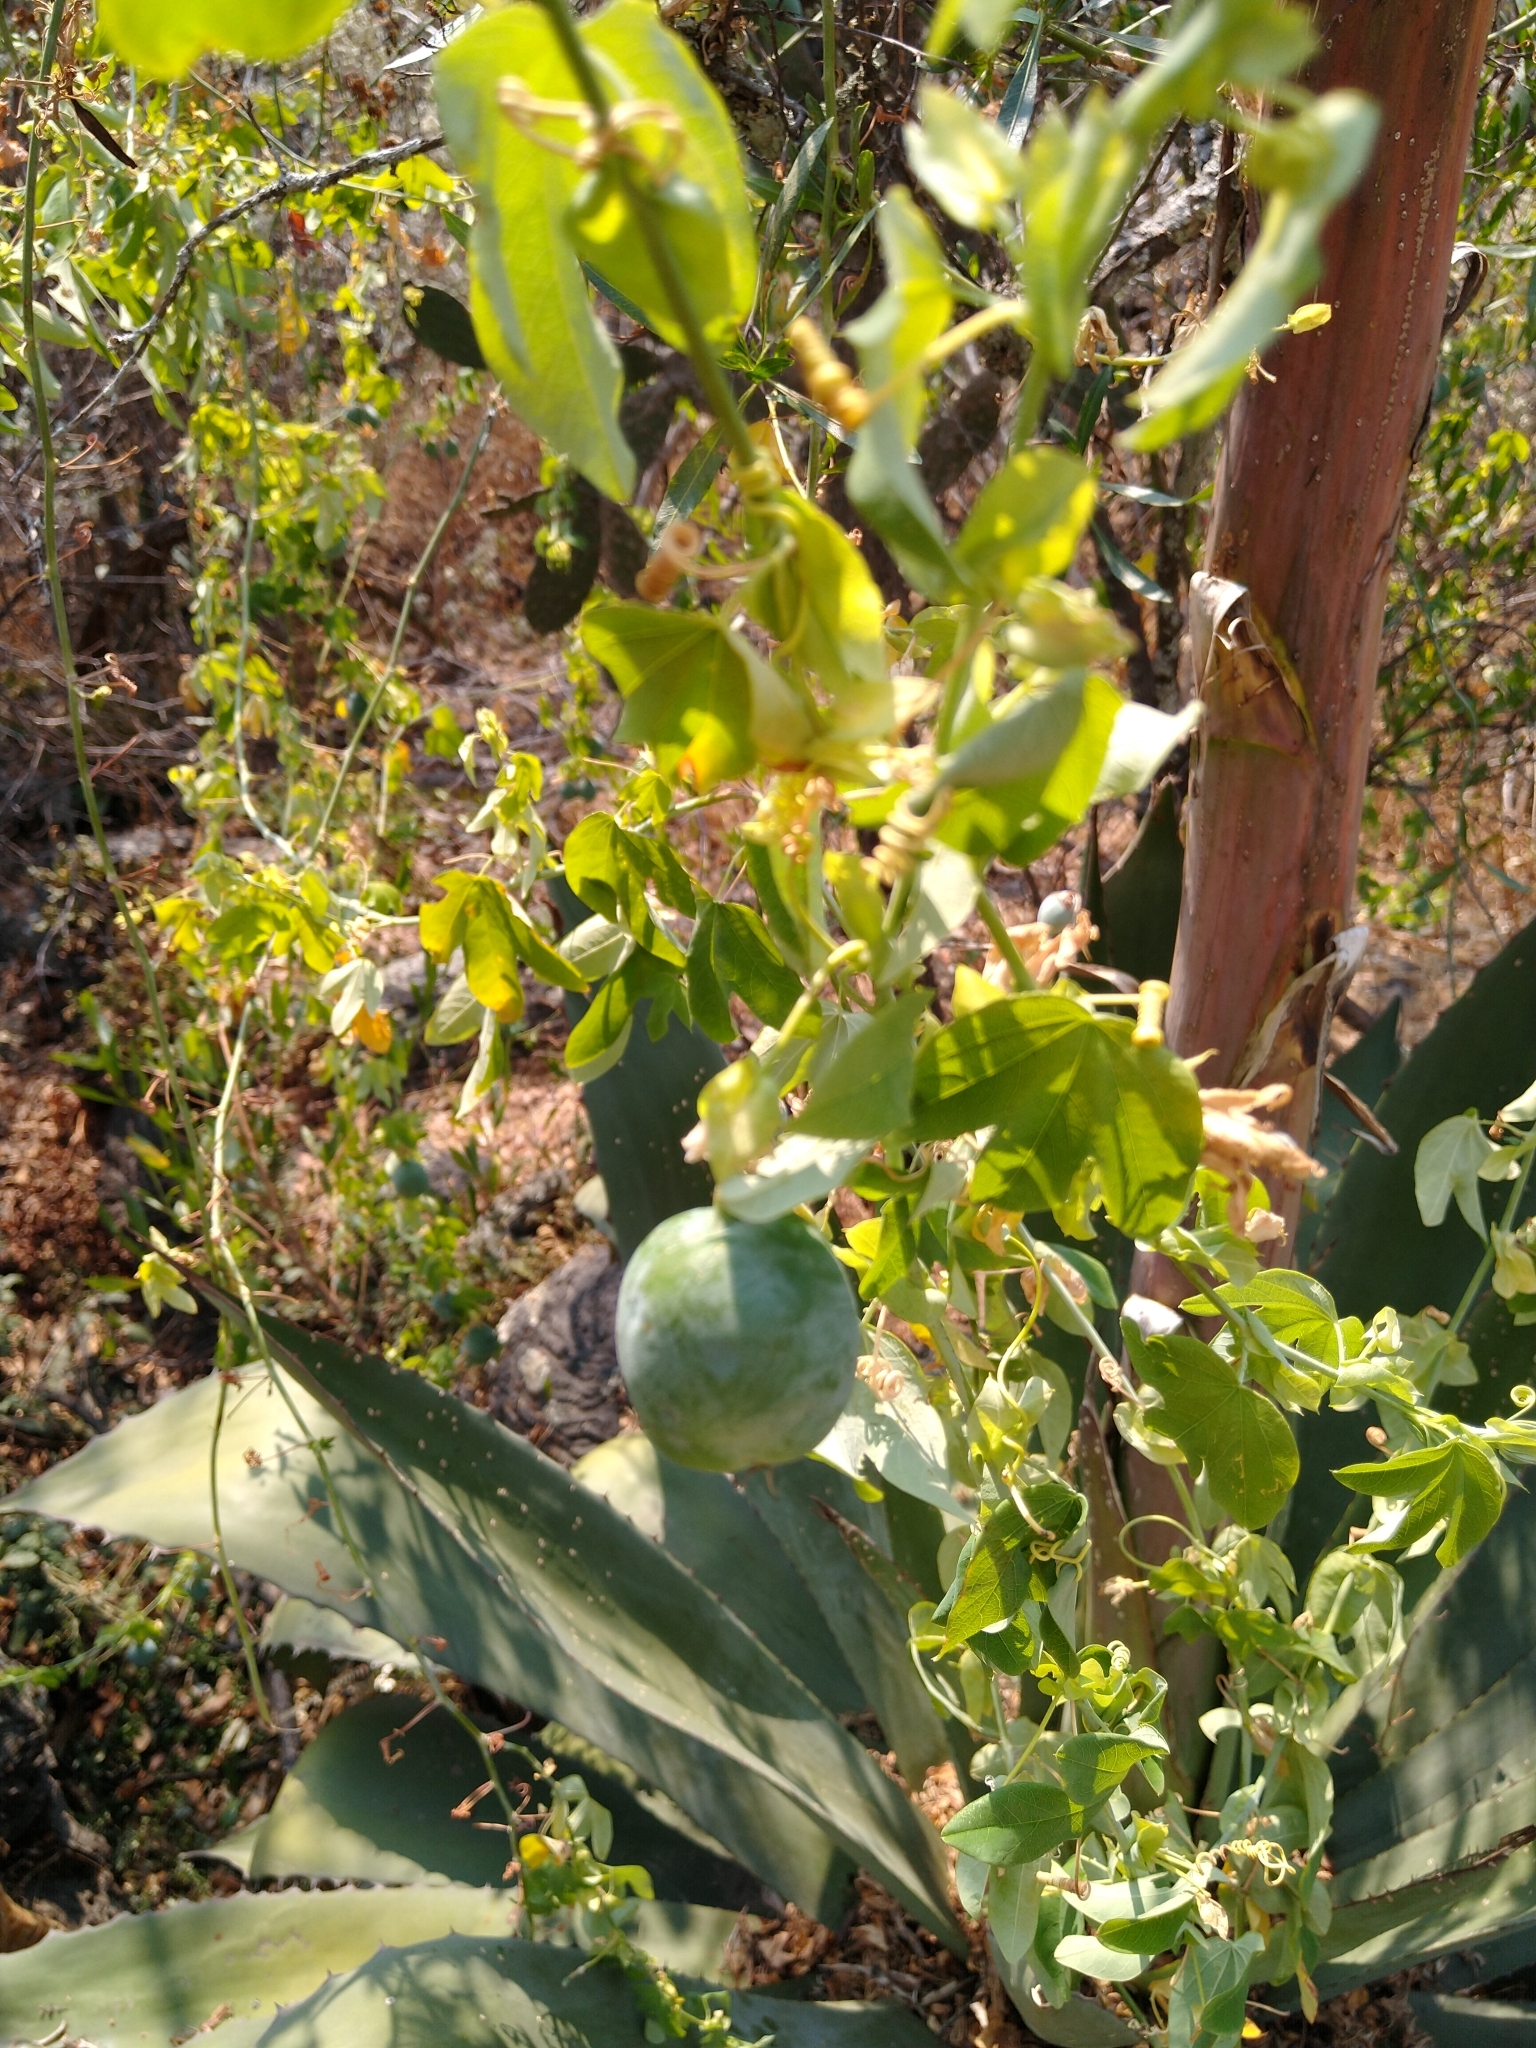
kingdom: Plantae
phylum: Tracheophyta
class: Magnoliopsida
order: Malpighiales
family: Passifloraceae
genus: Passiflora
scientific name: Passiflora subpeltata
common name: White passionflower
